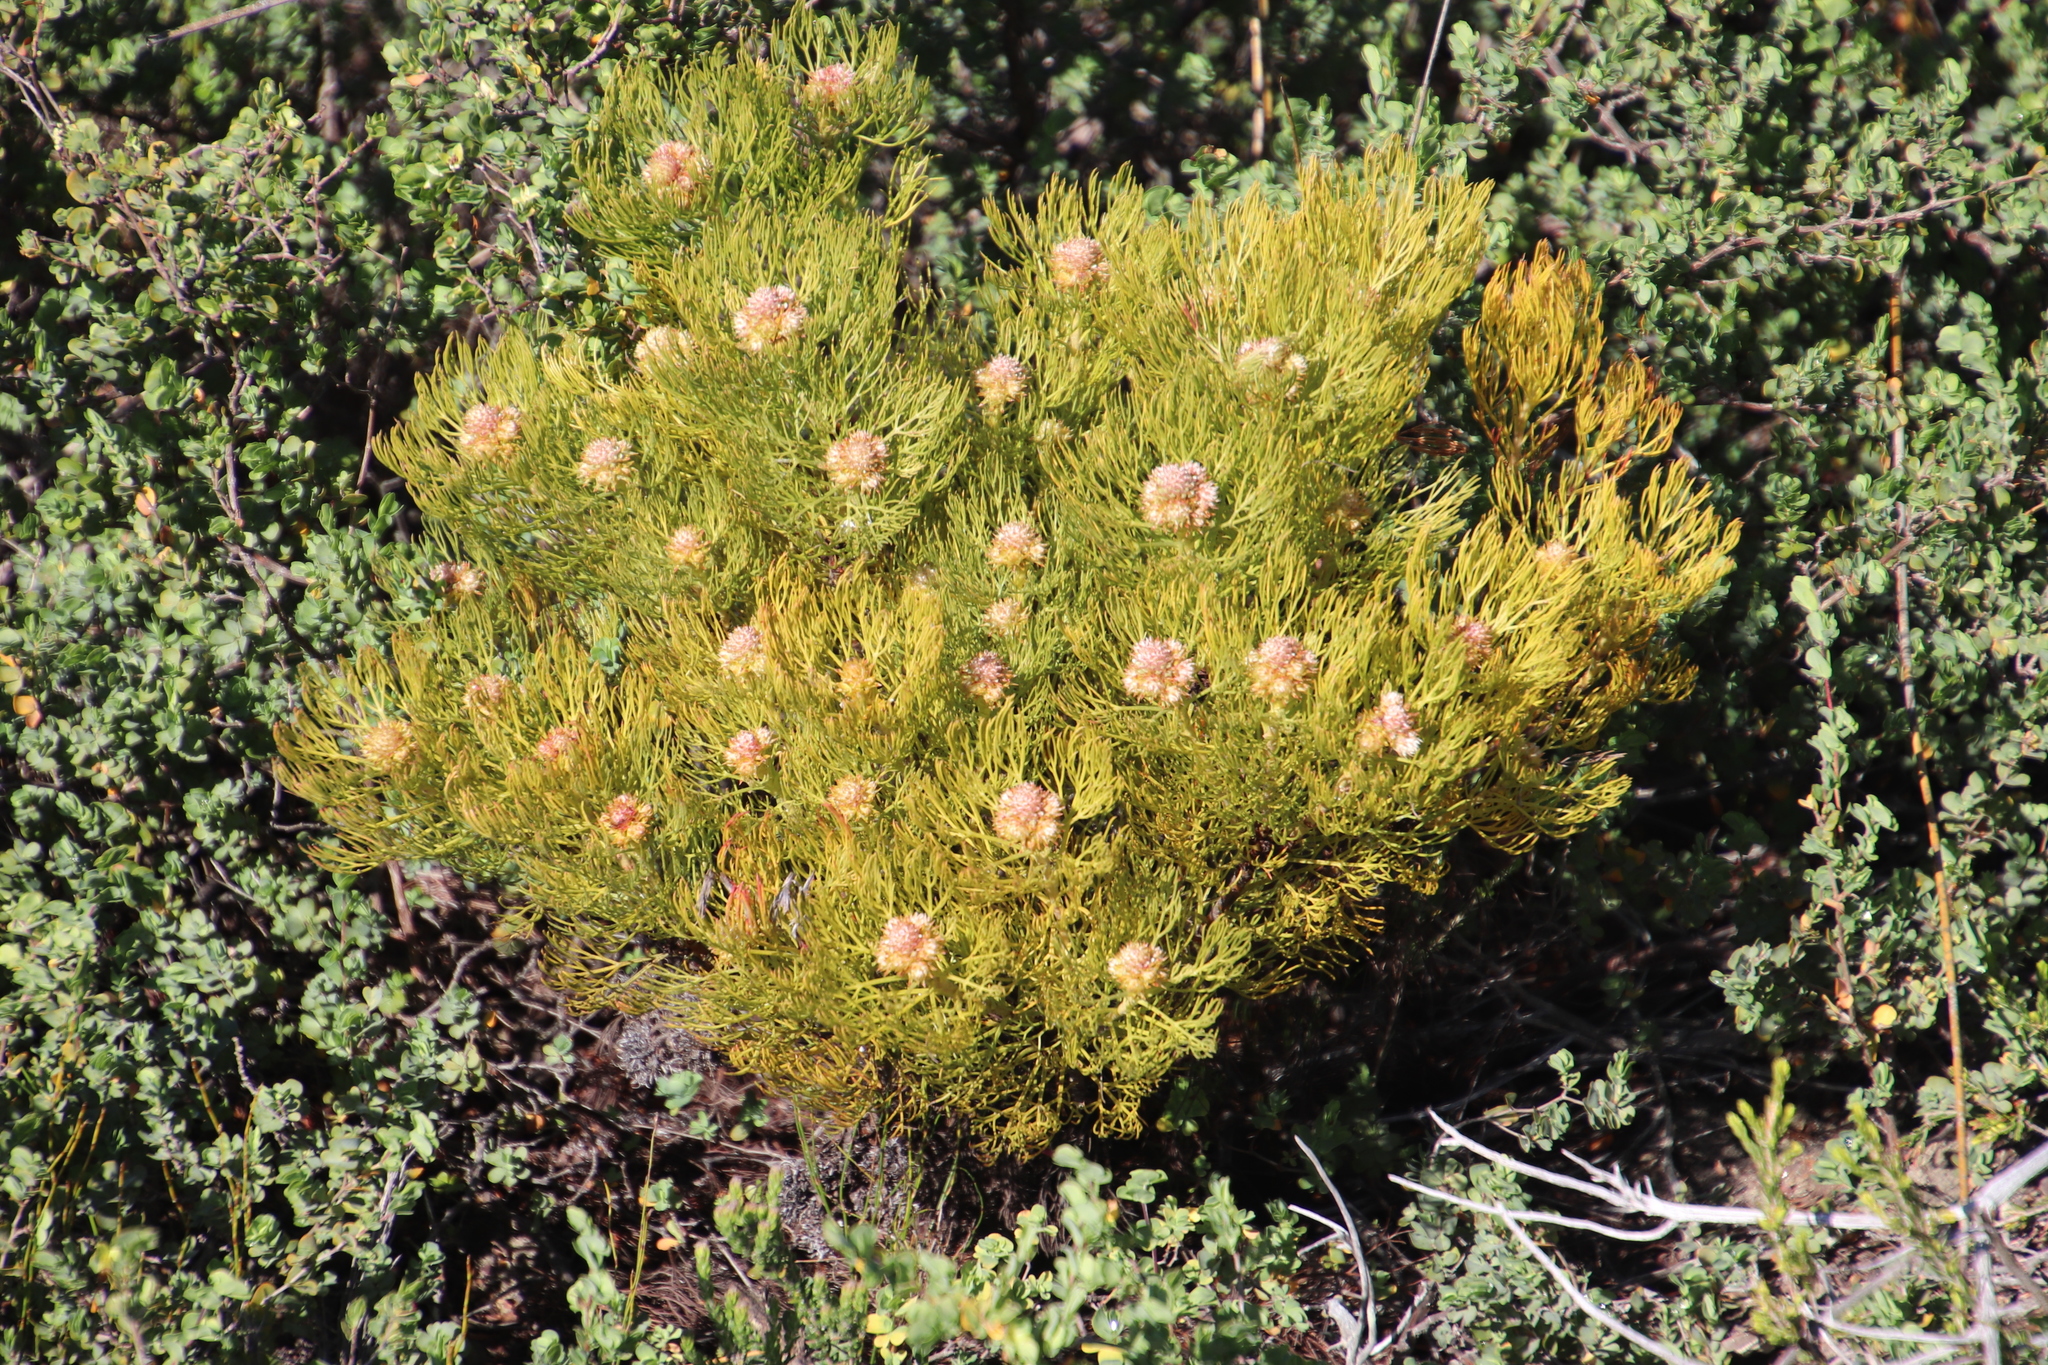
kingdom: Plantae
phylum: Tracheophyta
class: Magnoliopsida
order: Proteales
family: Proteaceae
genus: Serruria
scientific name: Serruria glomerata
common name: Cluster spiderhead
